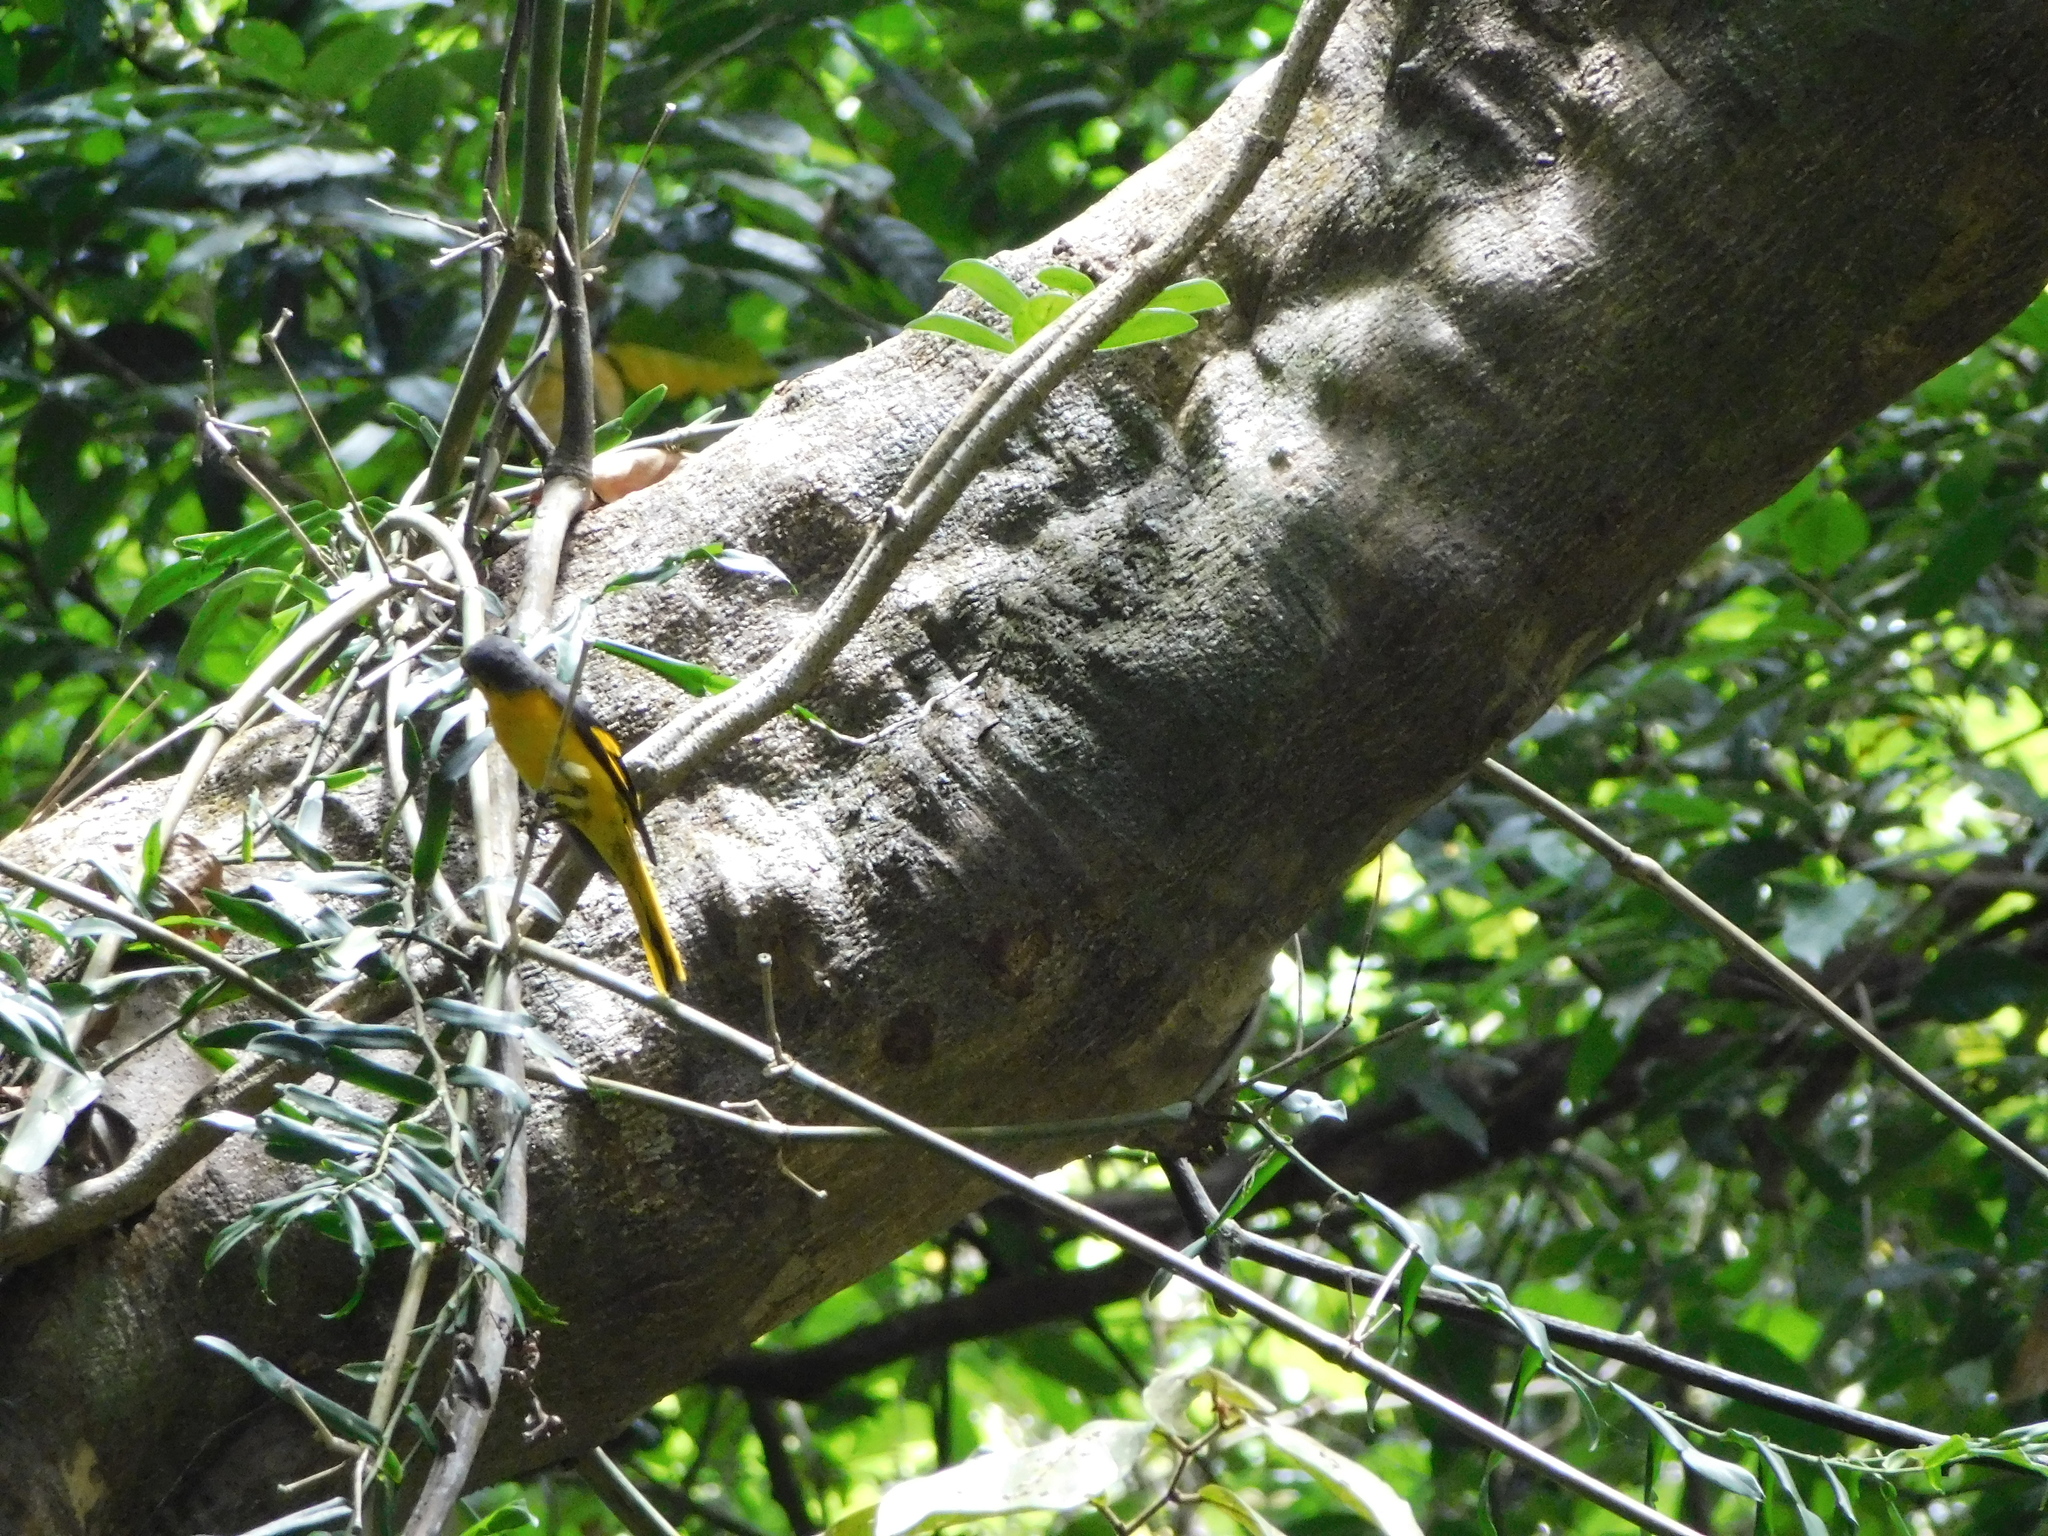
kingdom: Animalia
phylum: Chordata
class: Aves
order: Passeriformes
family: Campephagidae
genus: Pericrocotus
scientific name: Pericrocotus ethologus
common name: Long-tailed minivet
